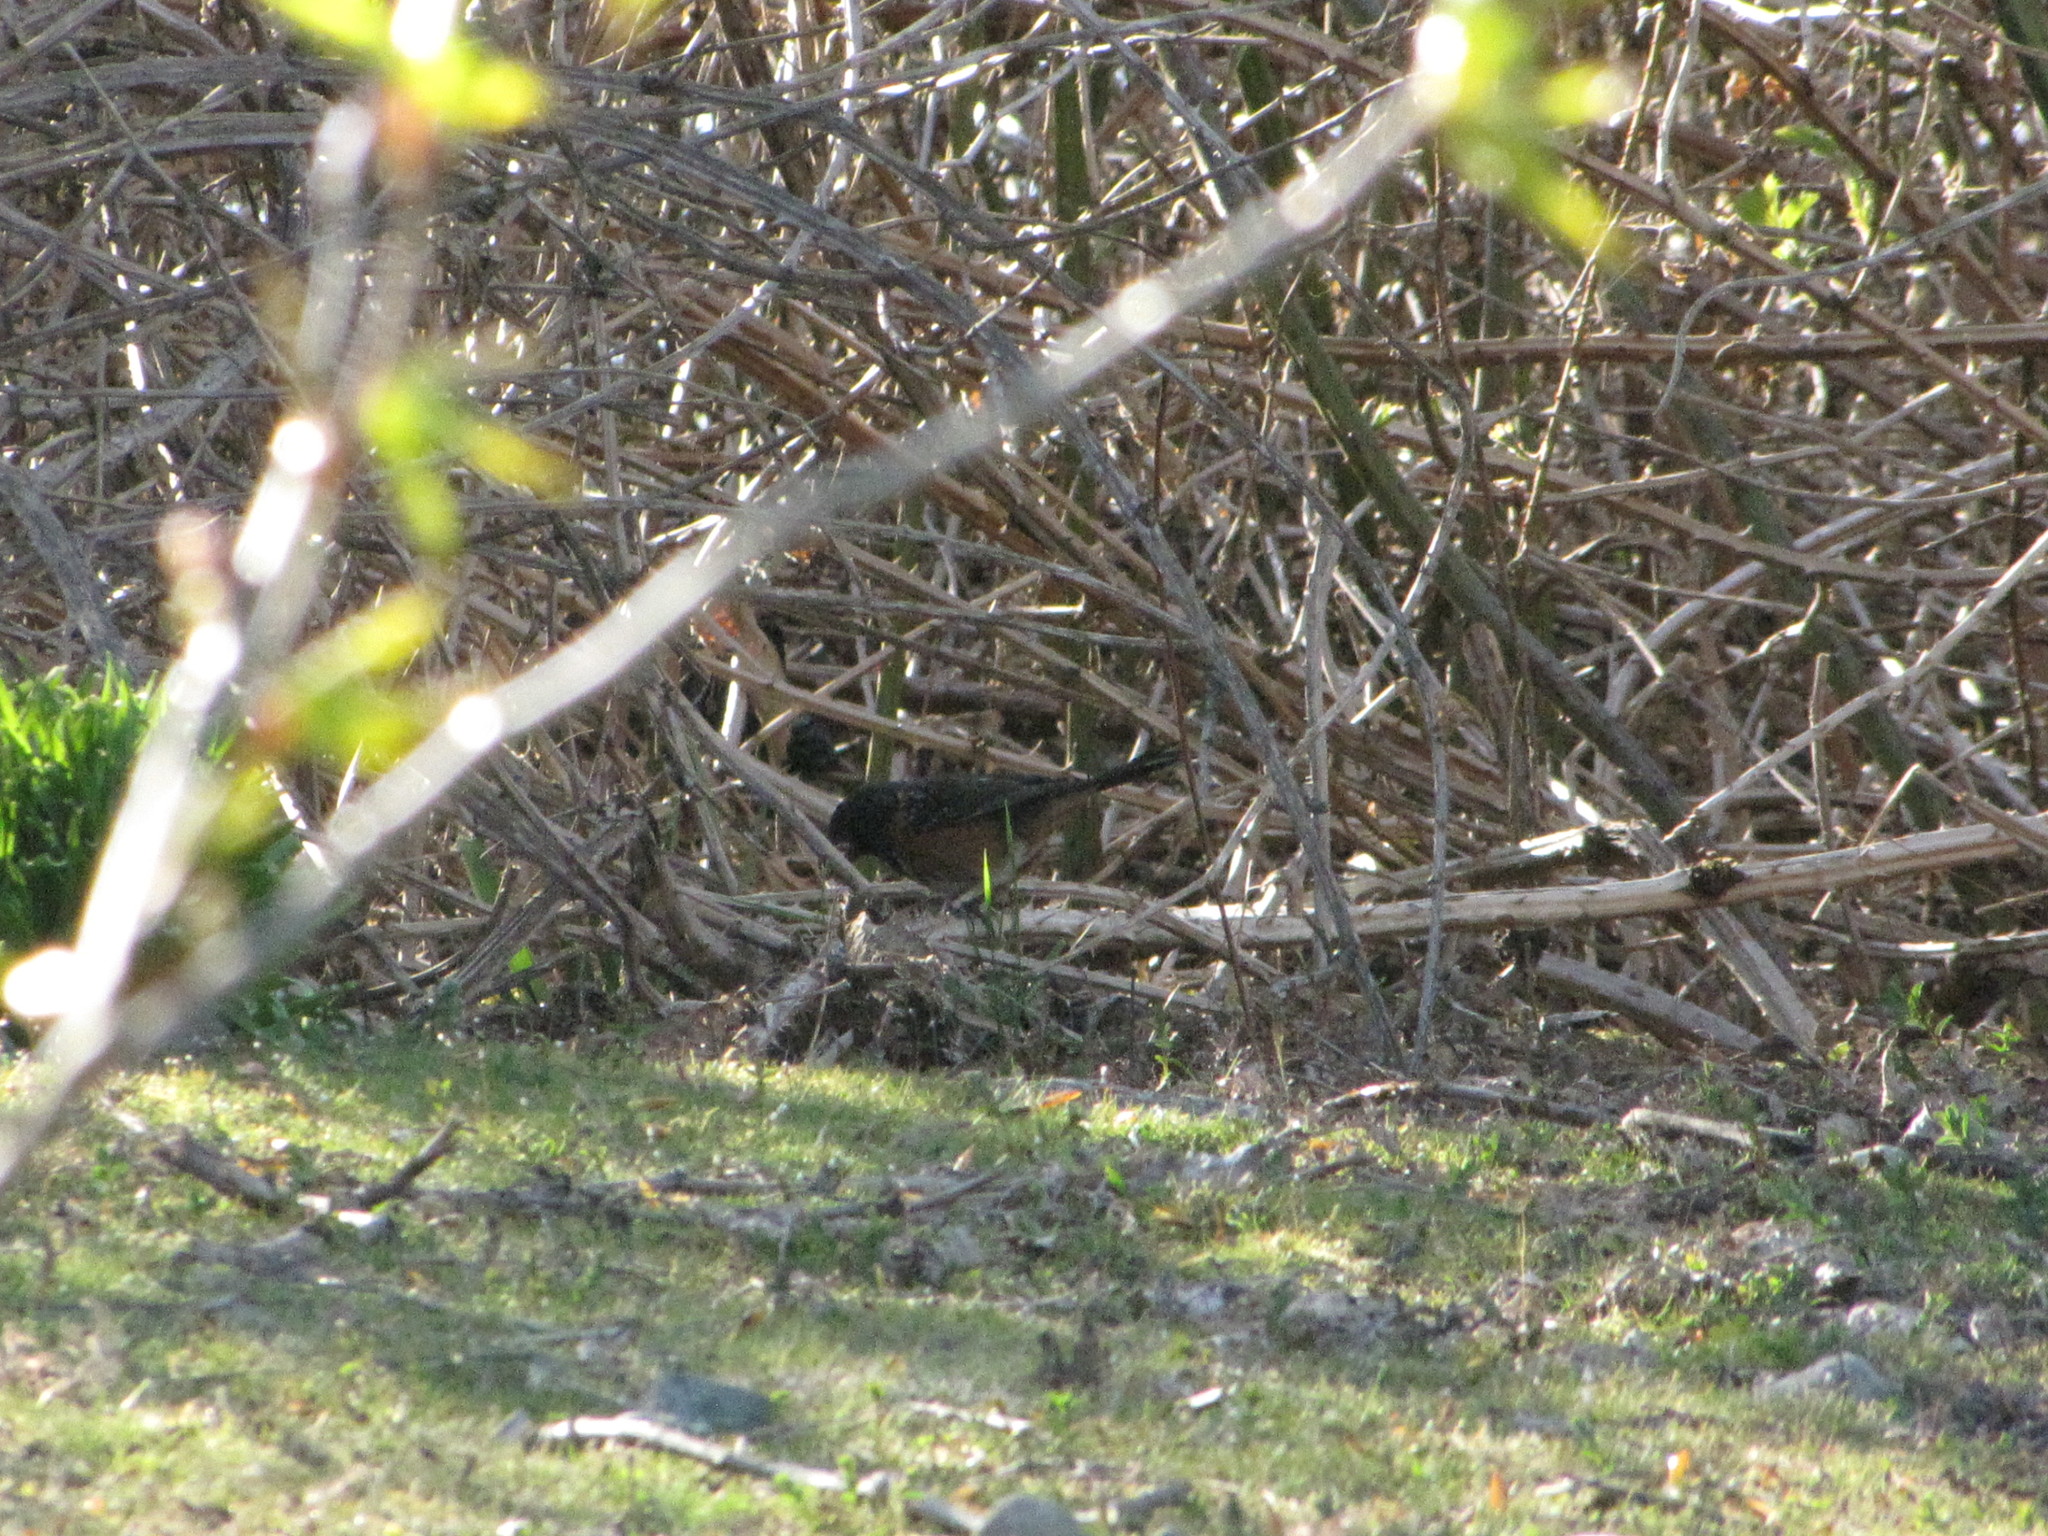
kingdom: Animalia
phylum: Chordata
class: Aves
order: Passeriformes
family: Passerellidae
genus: Pipilo
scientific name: Pipilo maculatus
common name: Spotted towhee
